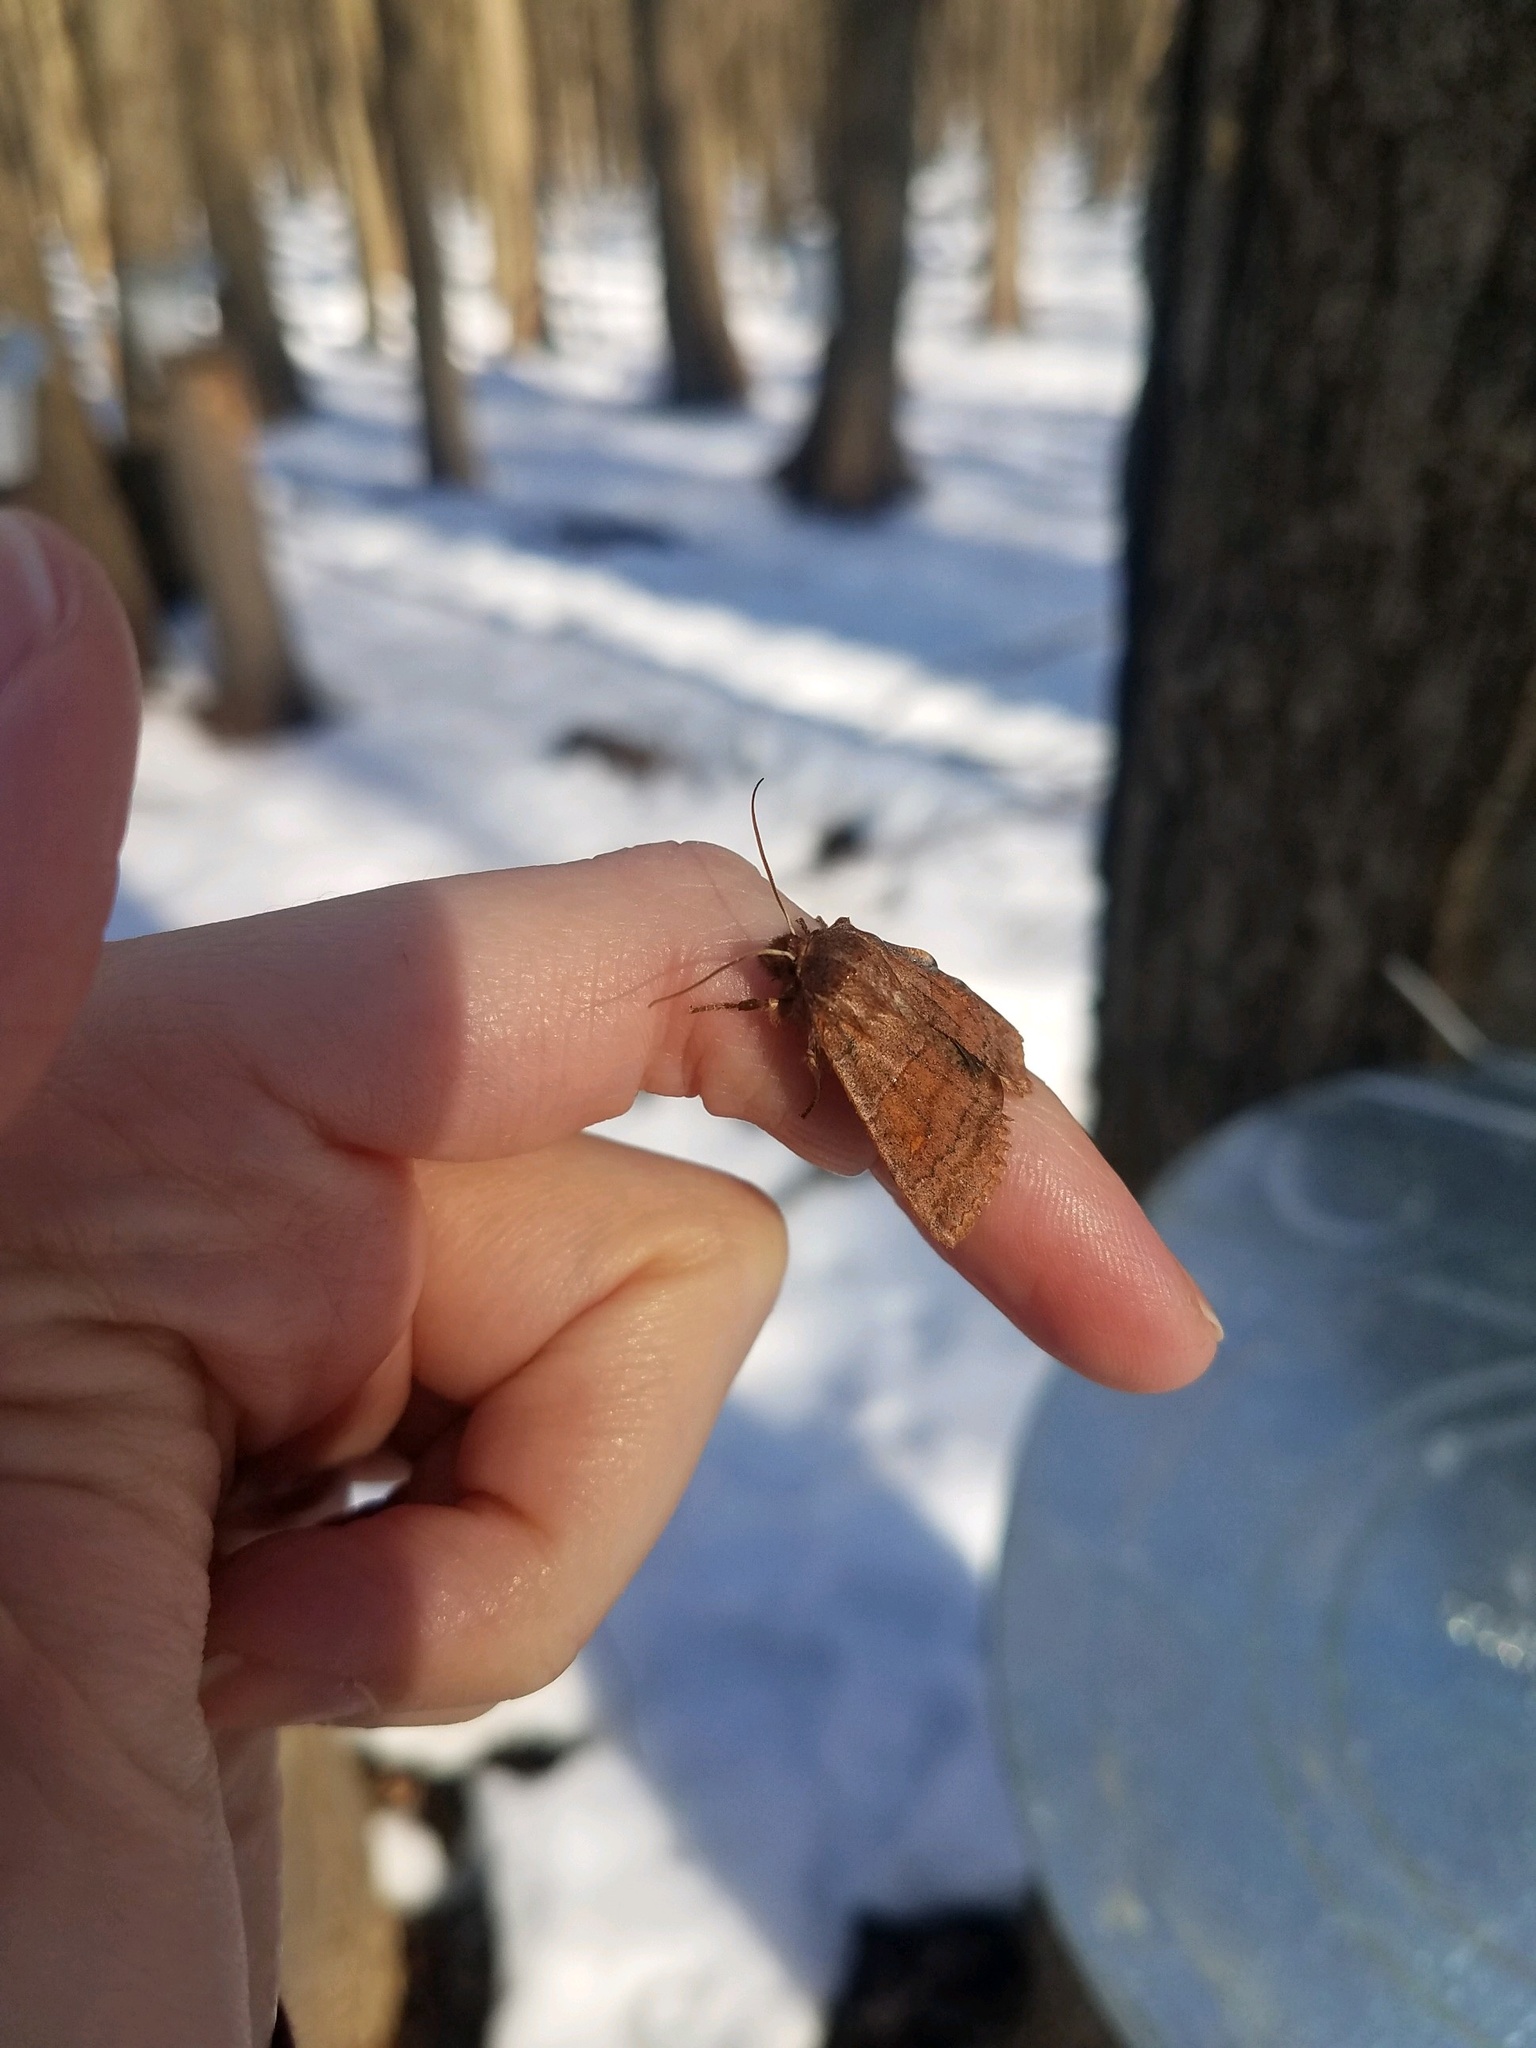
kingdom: Animalia
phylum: Arthropoda
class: Insecta
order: Lepidoptera
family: Noctuidae
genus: Eupsilia
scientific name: Eupsilia vinulenta
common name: Straight-toothed sallow
